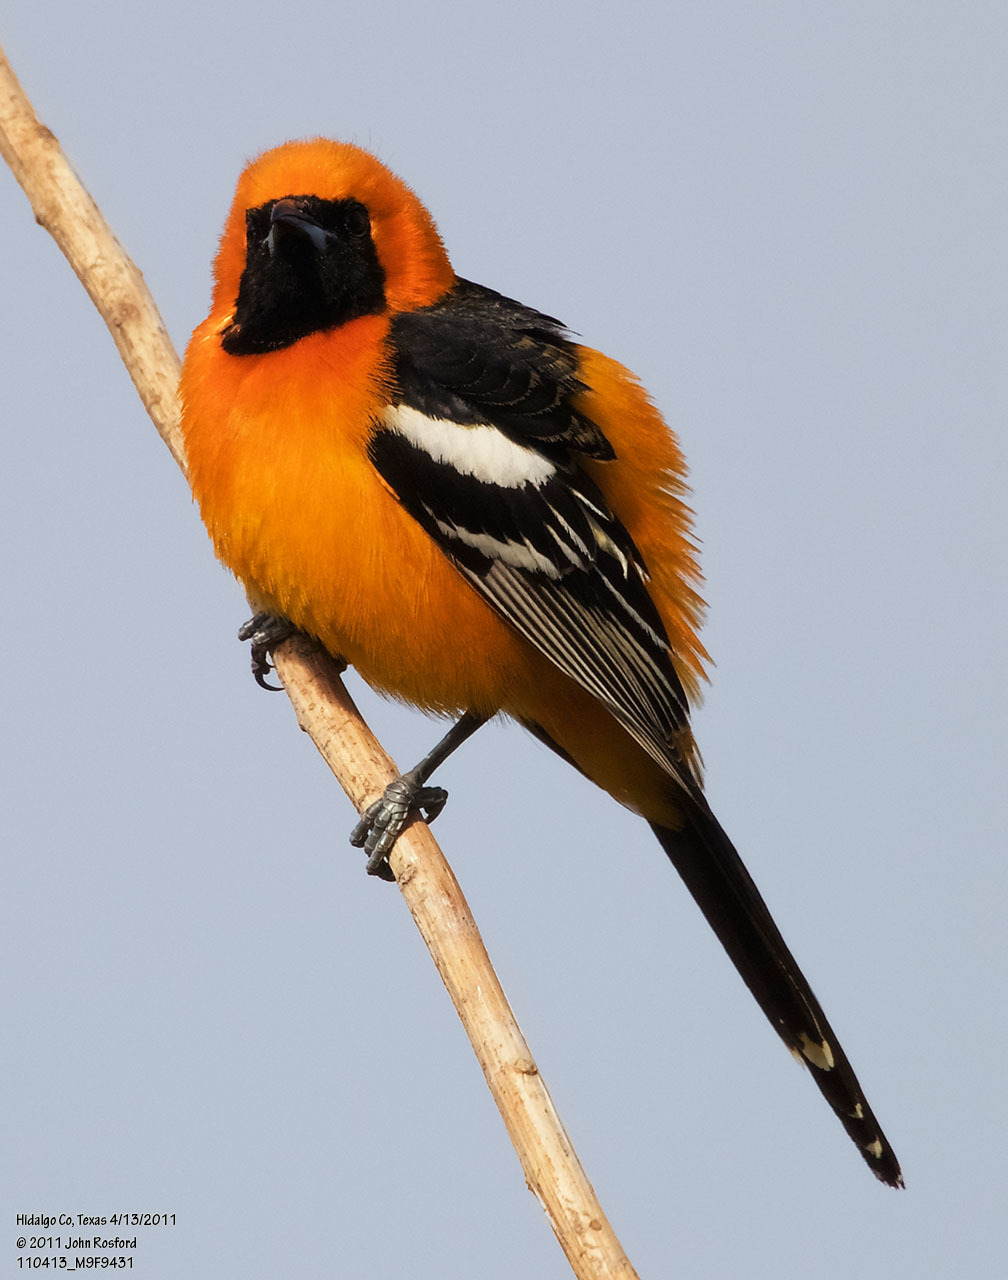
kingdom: Animalia
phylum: Chordata
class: Aves
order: Passeriformes
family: Icteridae
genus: Icterus
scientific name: Icterus cucullatus
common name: Hooded oriole
